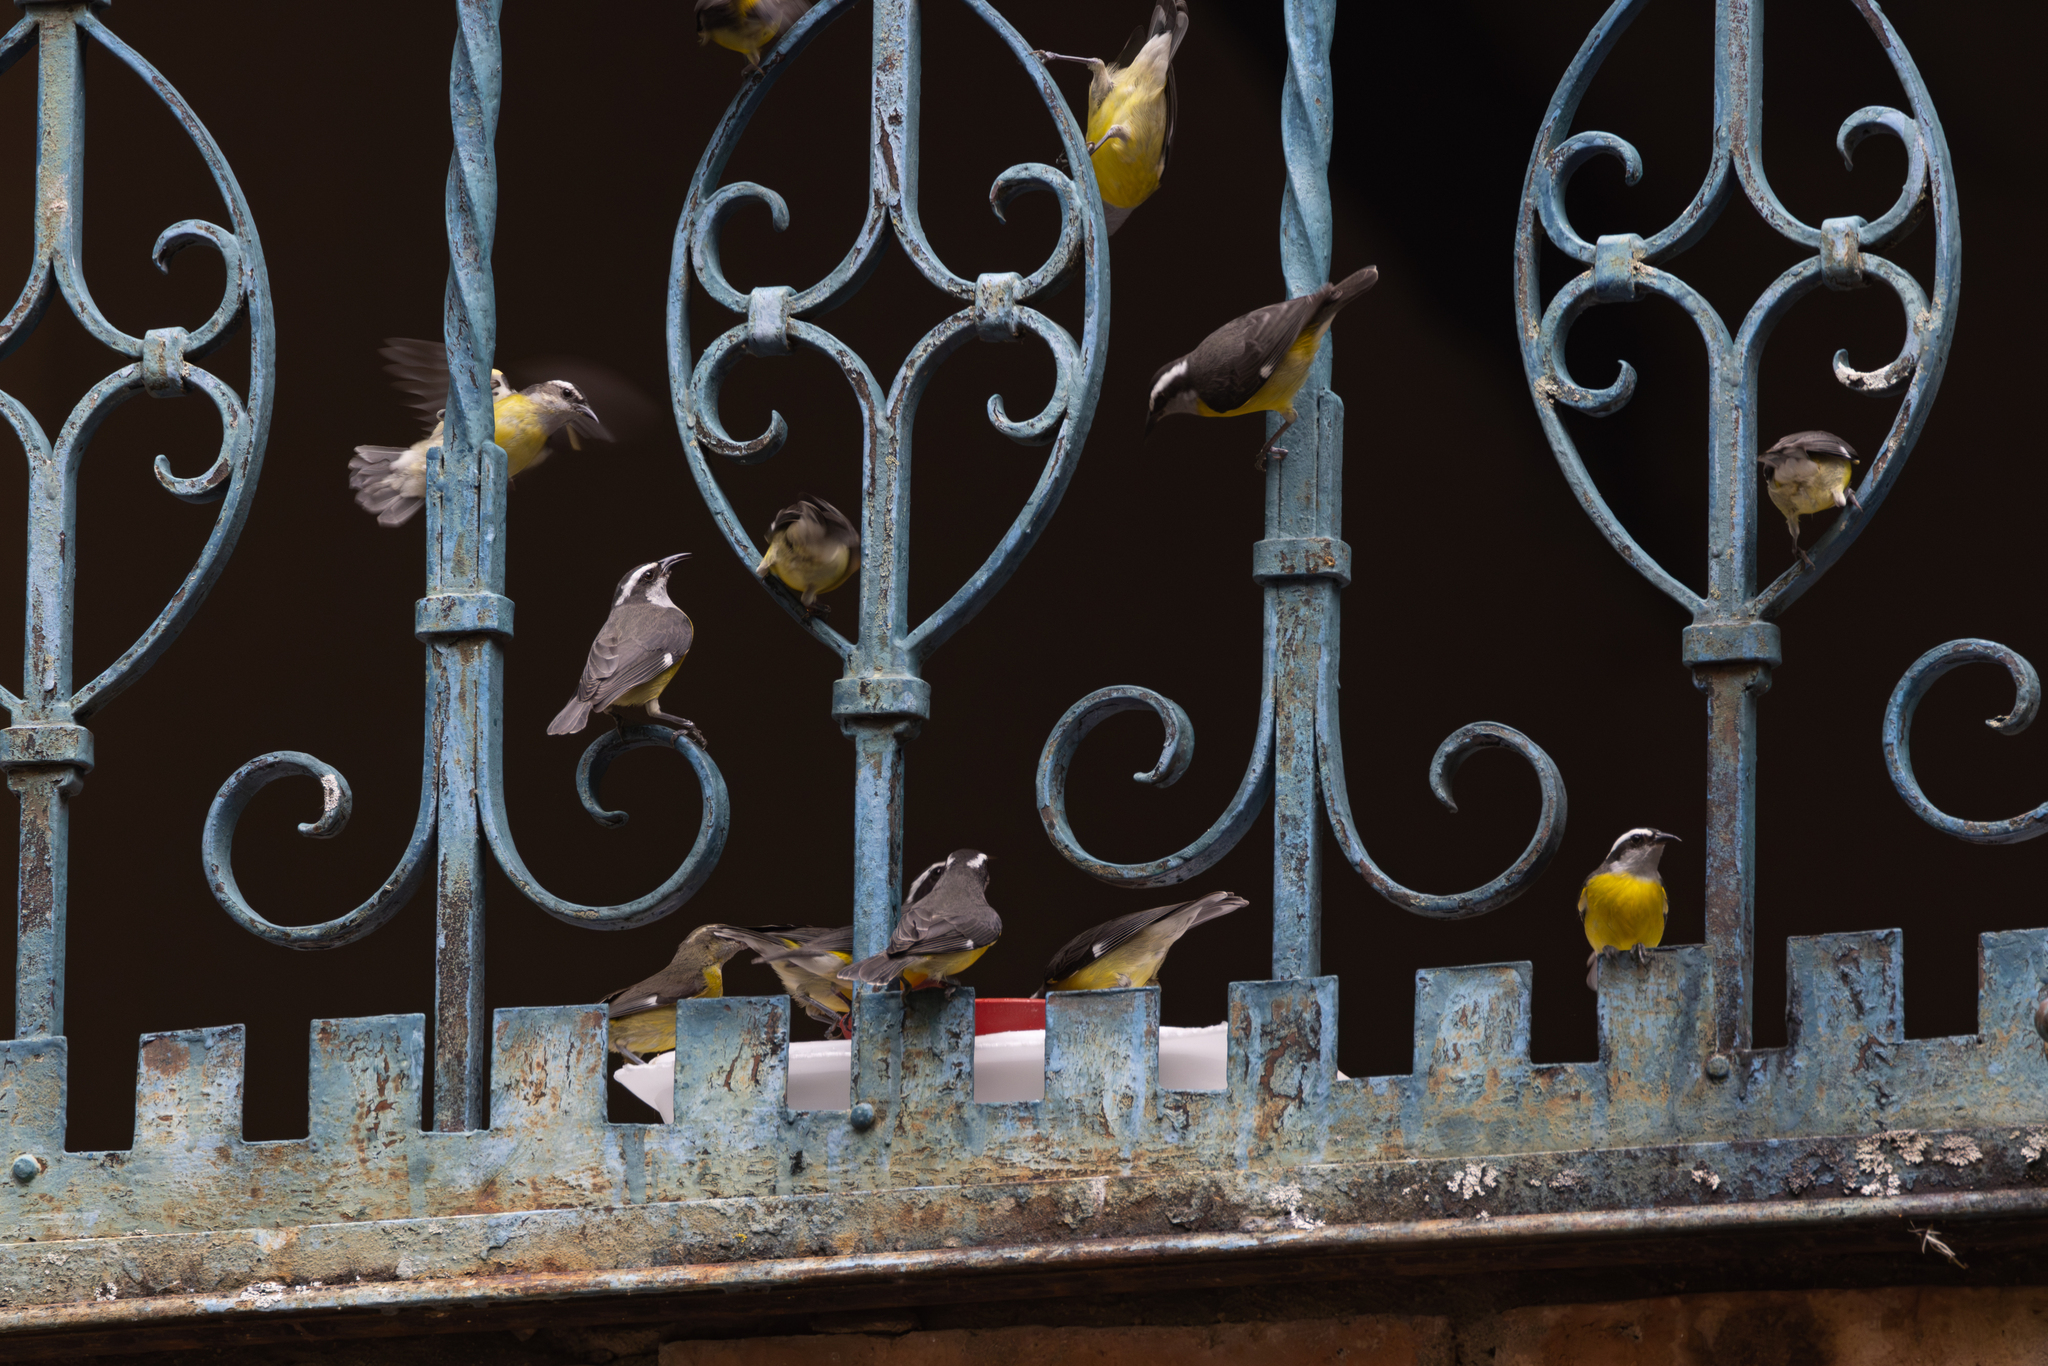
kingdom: Animalia
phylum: Chordata
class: Aves
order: Passeriformes
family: Thraupidae
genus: Coereba
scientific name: Coereba flaveola
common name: Bananaquit
